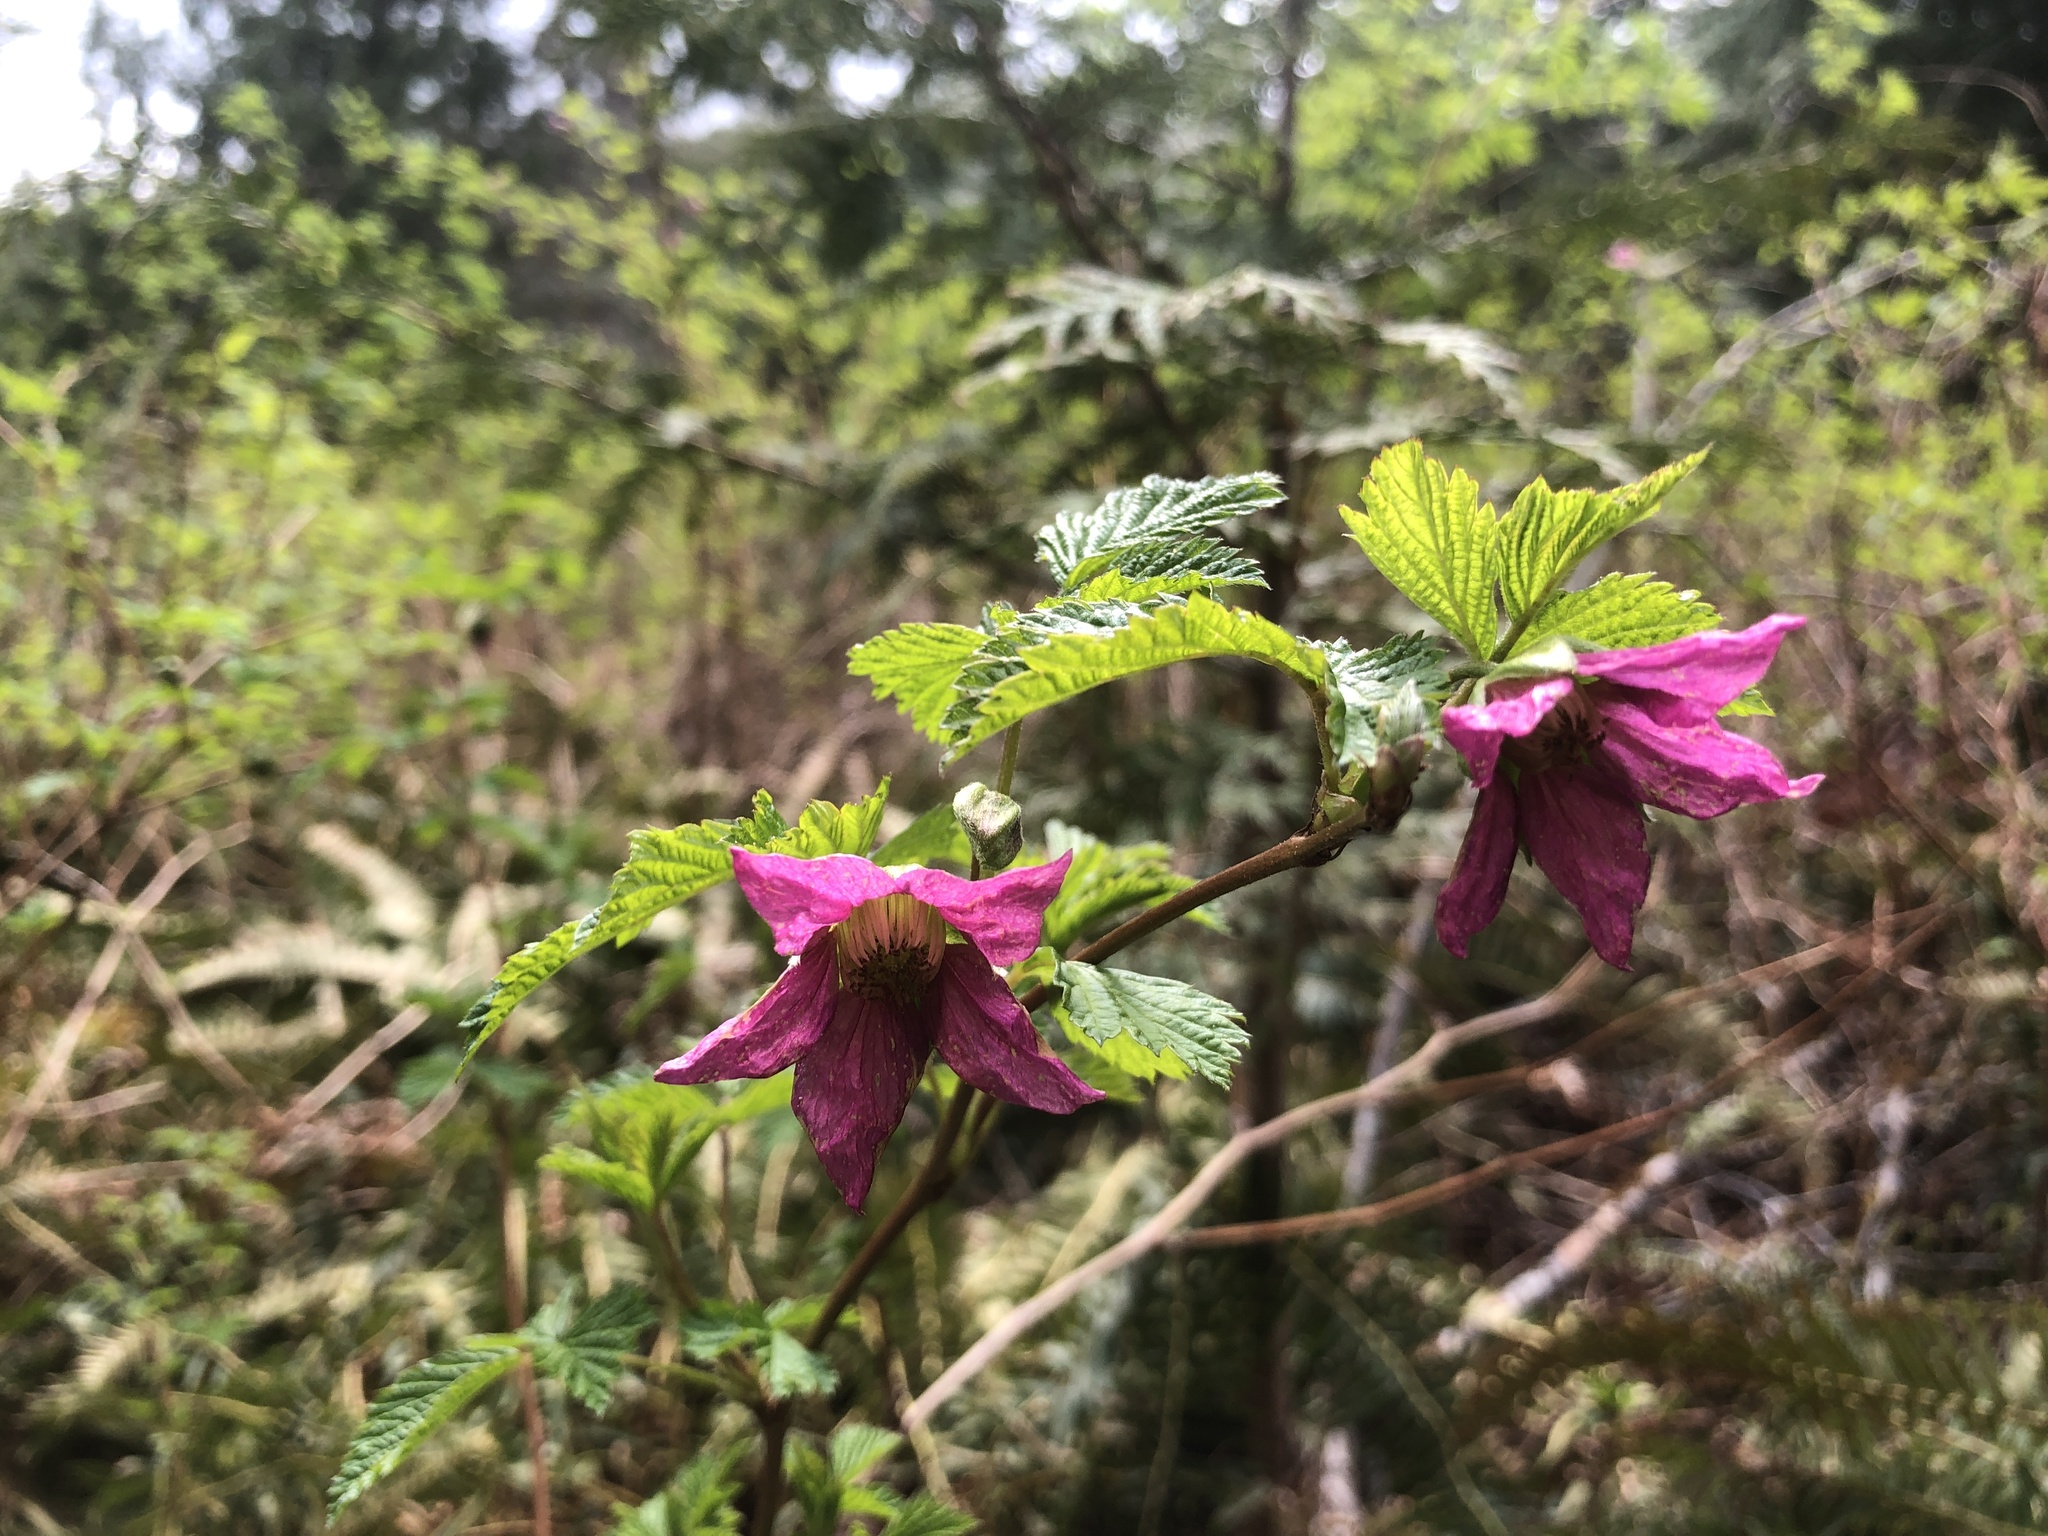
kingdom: Plantae
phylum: Tracheophyta
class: Magnoliopsida
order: Rosales
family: Rosaceae
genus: Rubus
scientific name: Rubus spectabilis
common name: Salmonberry
